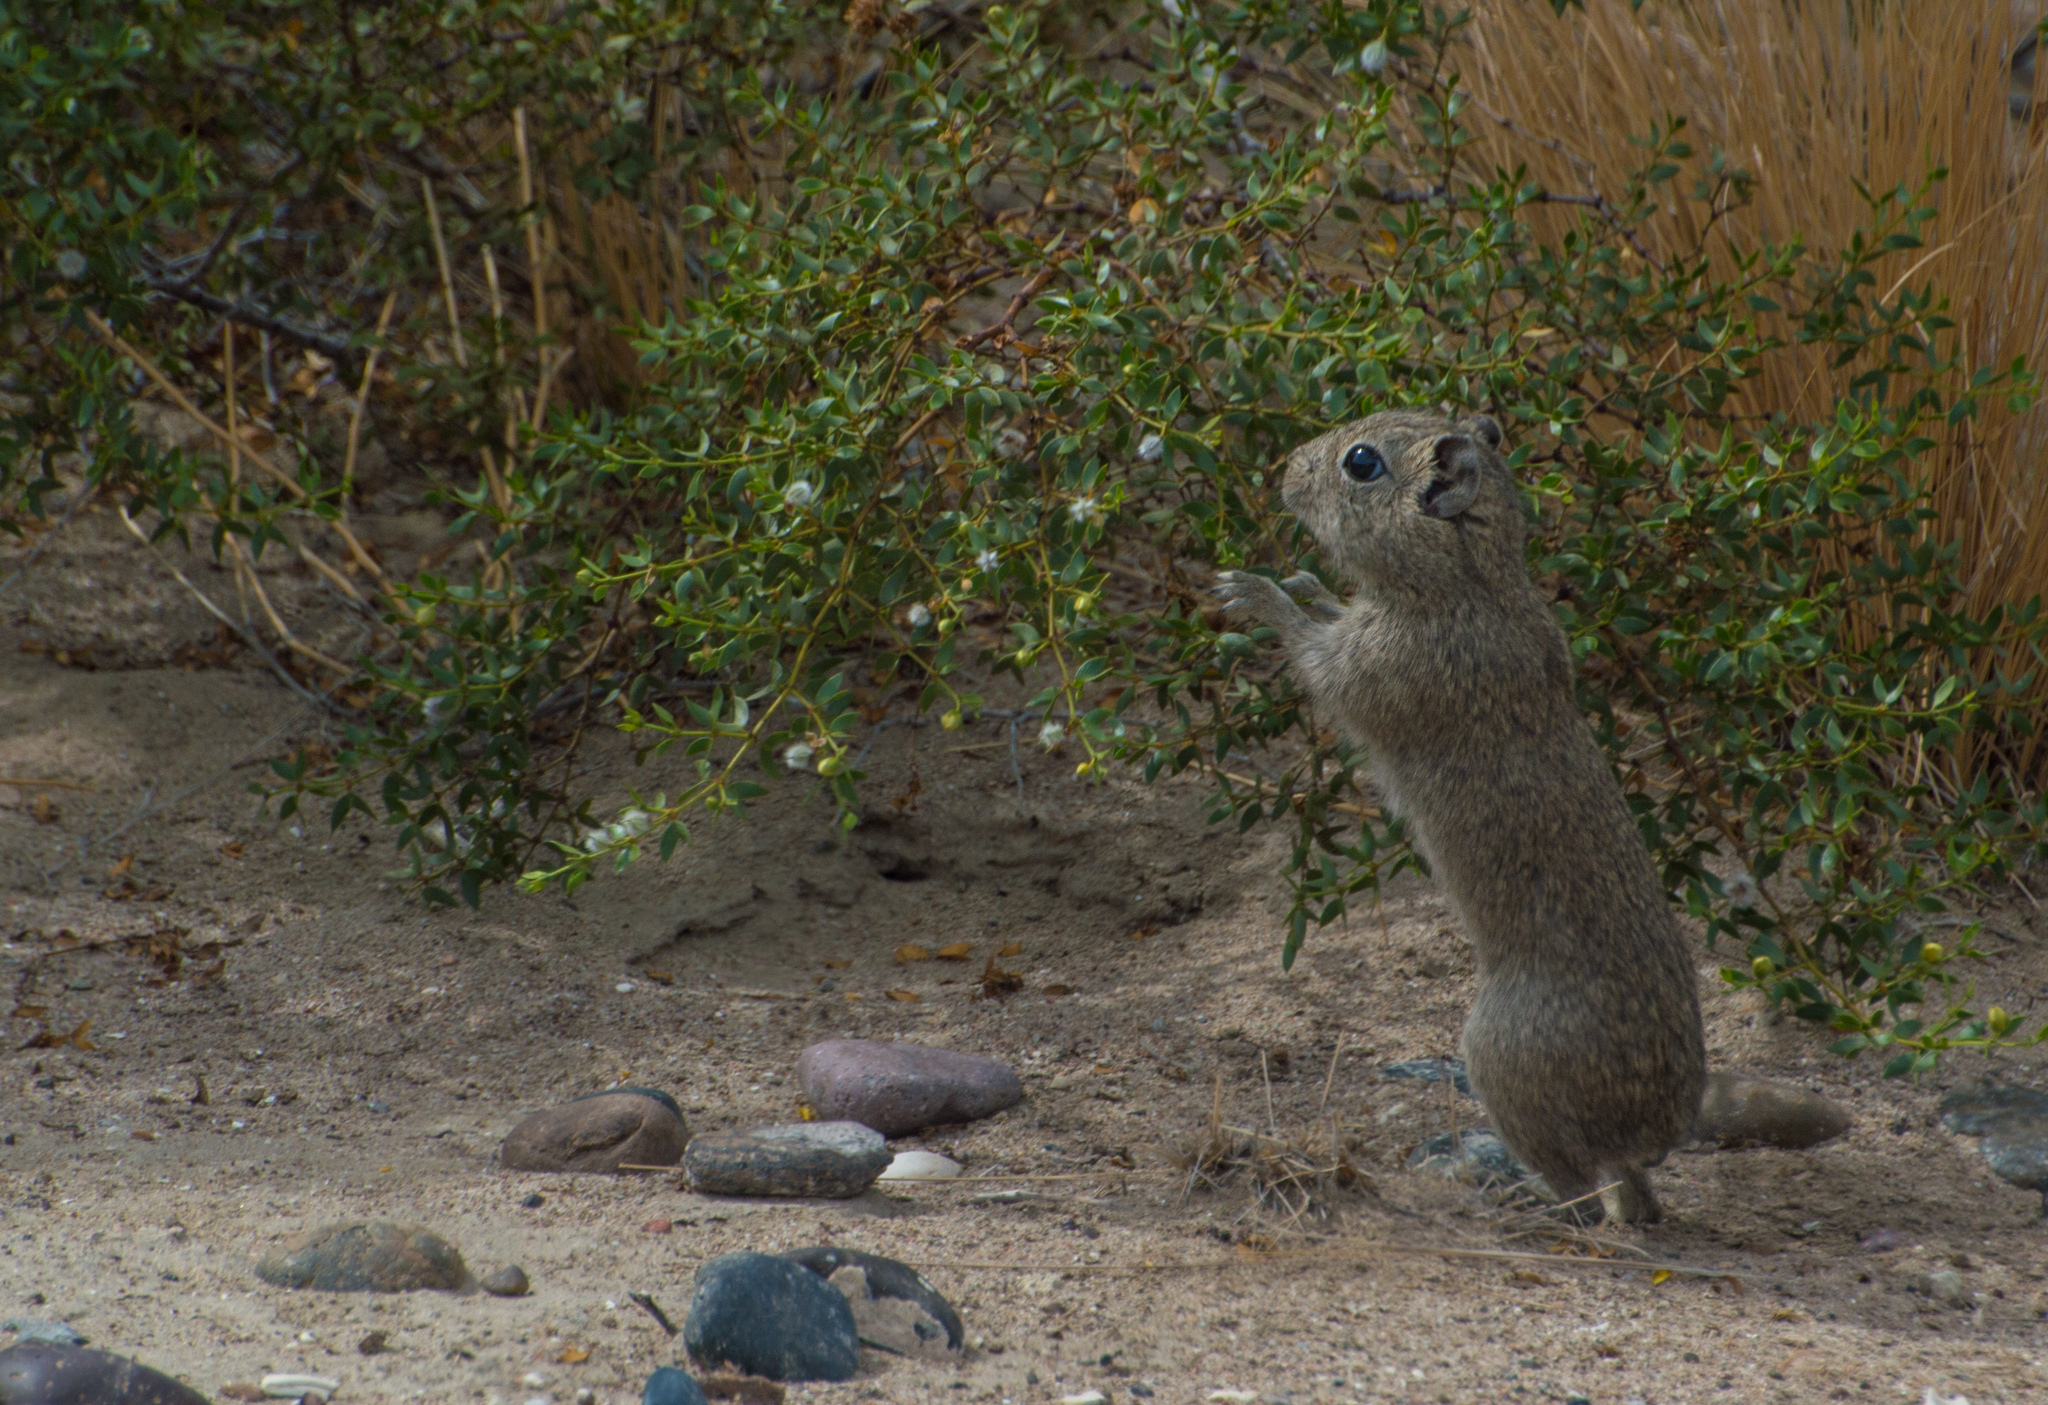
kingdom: Animalia
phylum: Chordata
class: Mammalia
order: Rodentia
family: Caviidae
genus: Microcavia
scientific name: Microcavia australis
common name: Southern mountain cavy
